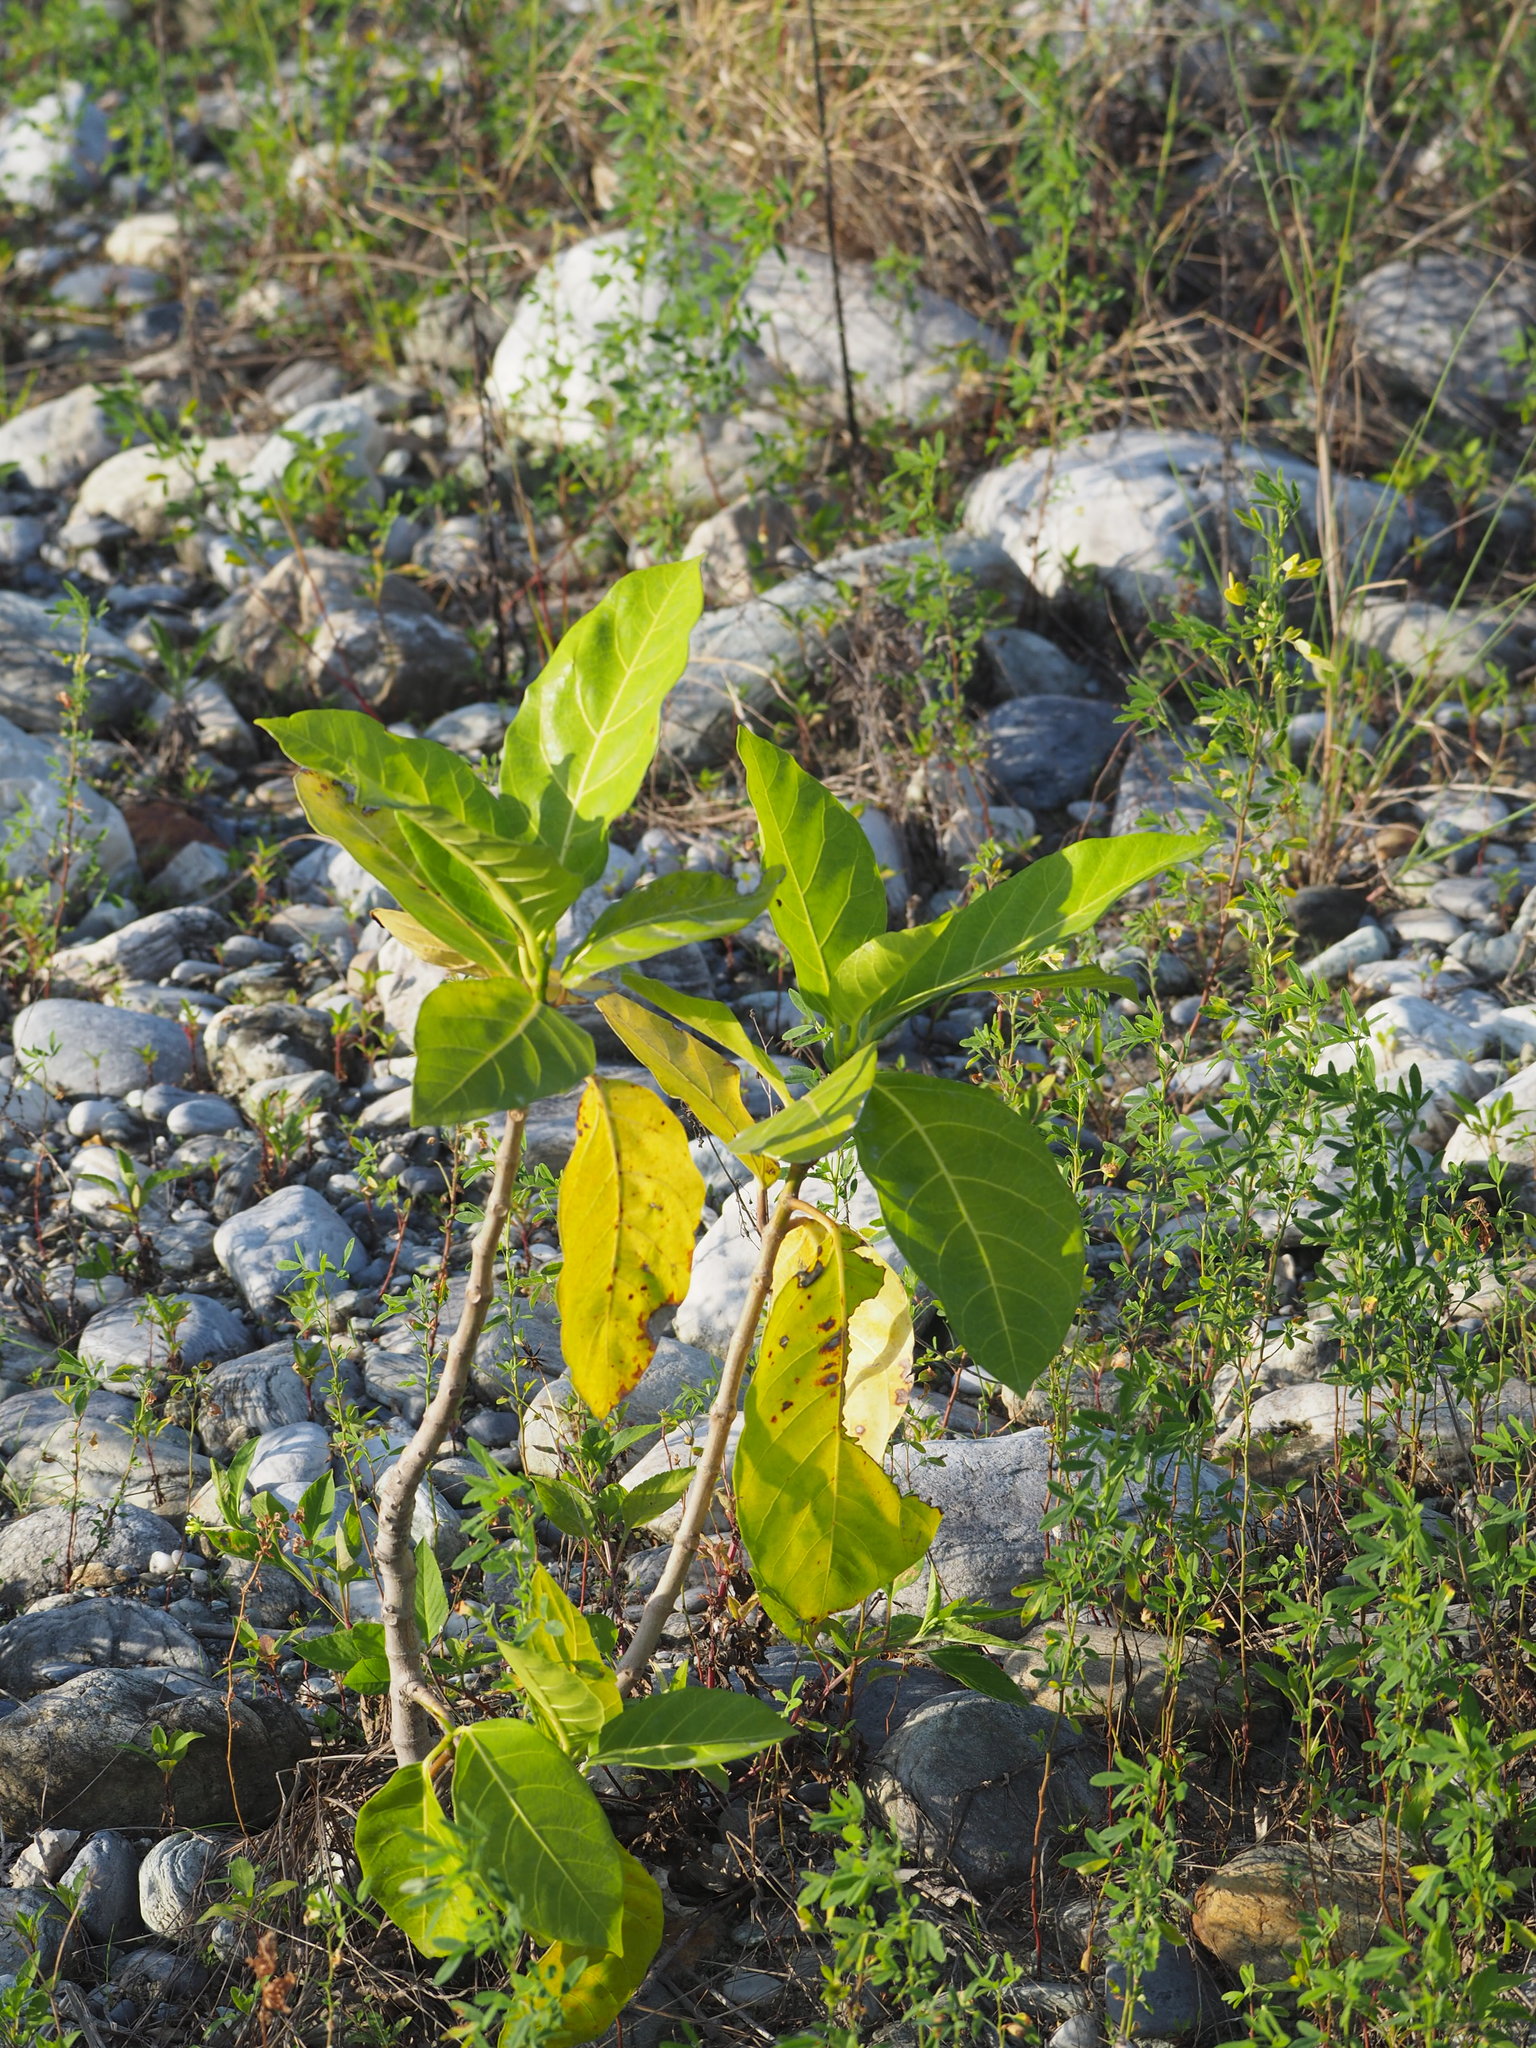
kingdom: Plantae
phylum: Tracheophyta
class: Magnoliopsida
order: Gentianales
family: Rubiaceae
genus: Morinda
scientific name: Morinda citrifolia
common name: Indian-mulberry
